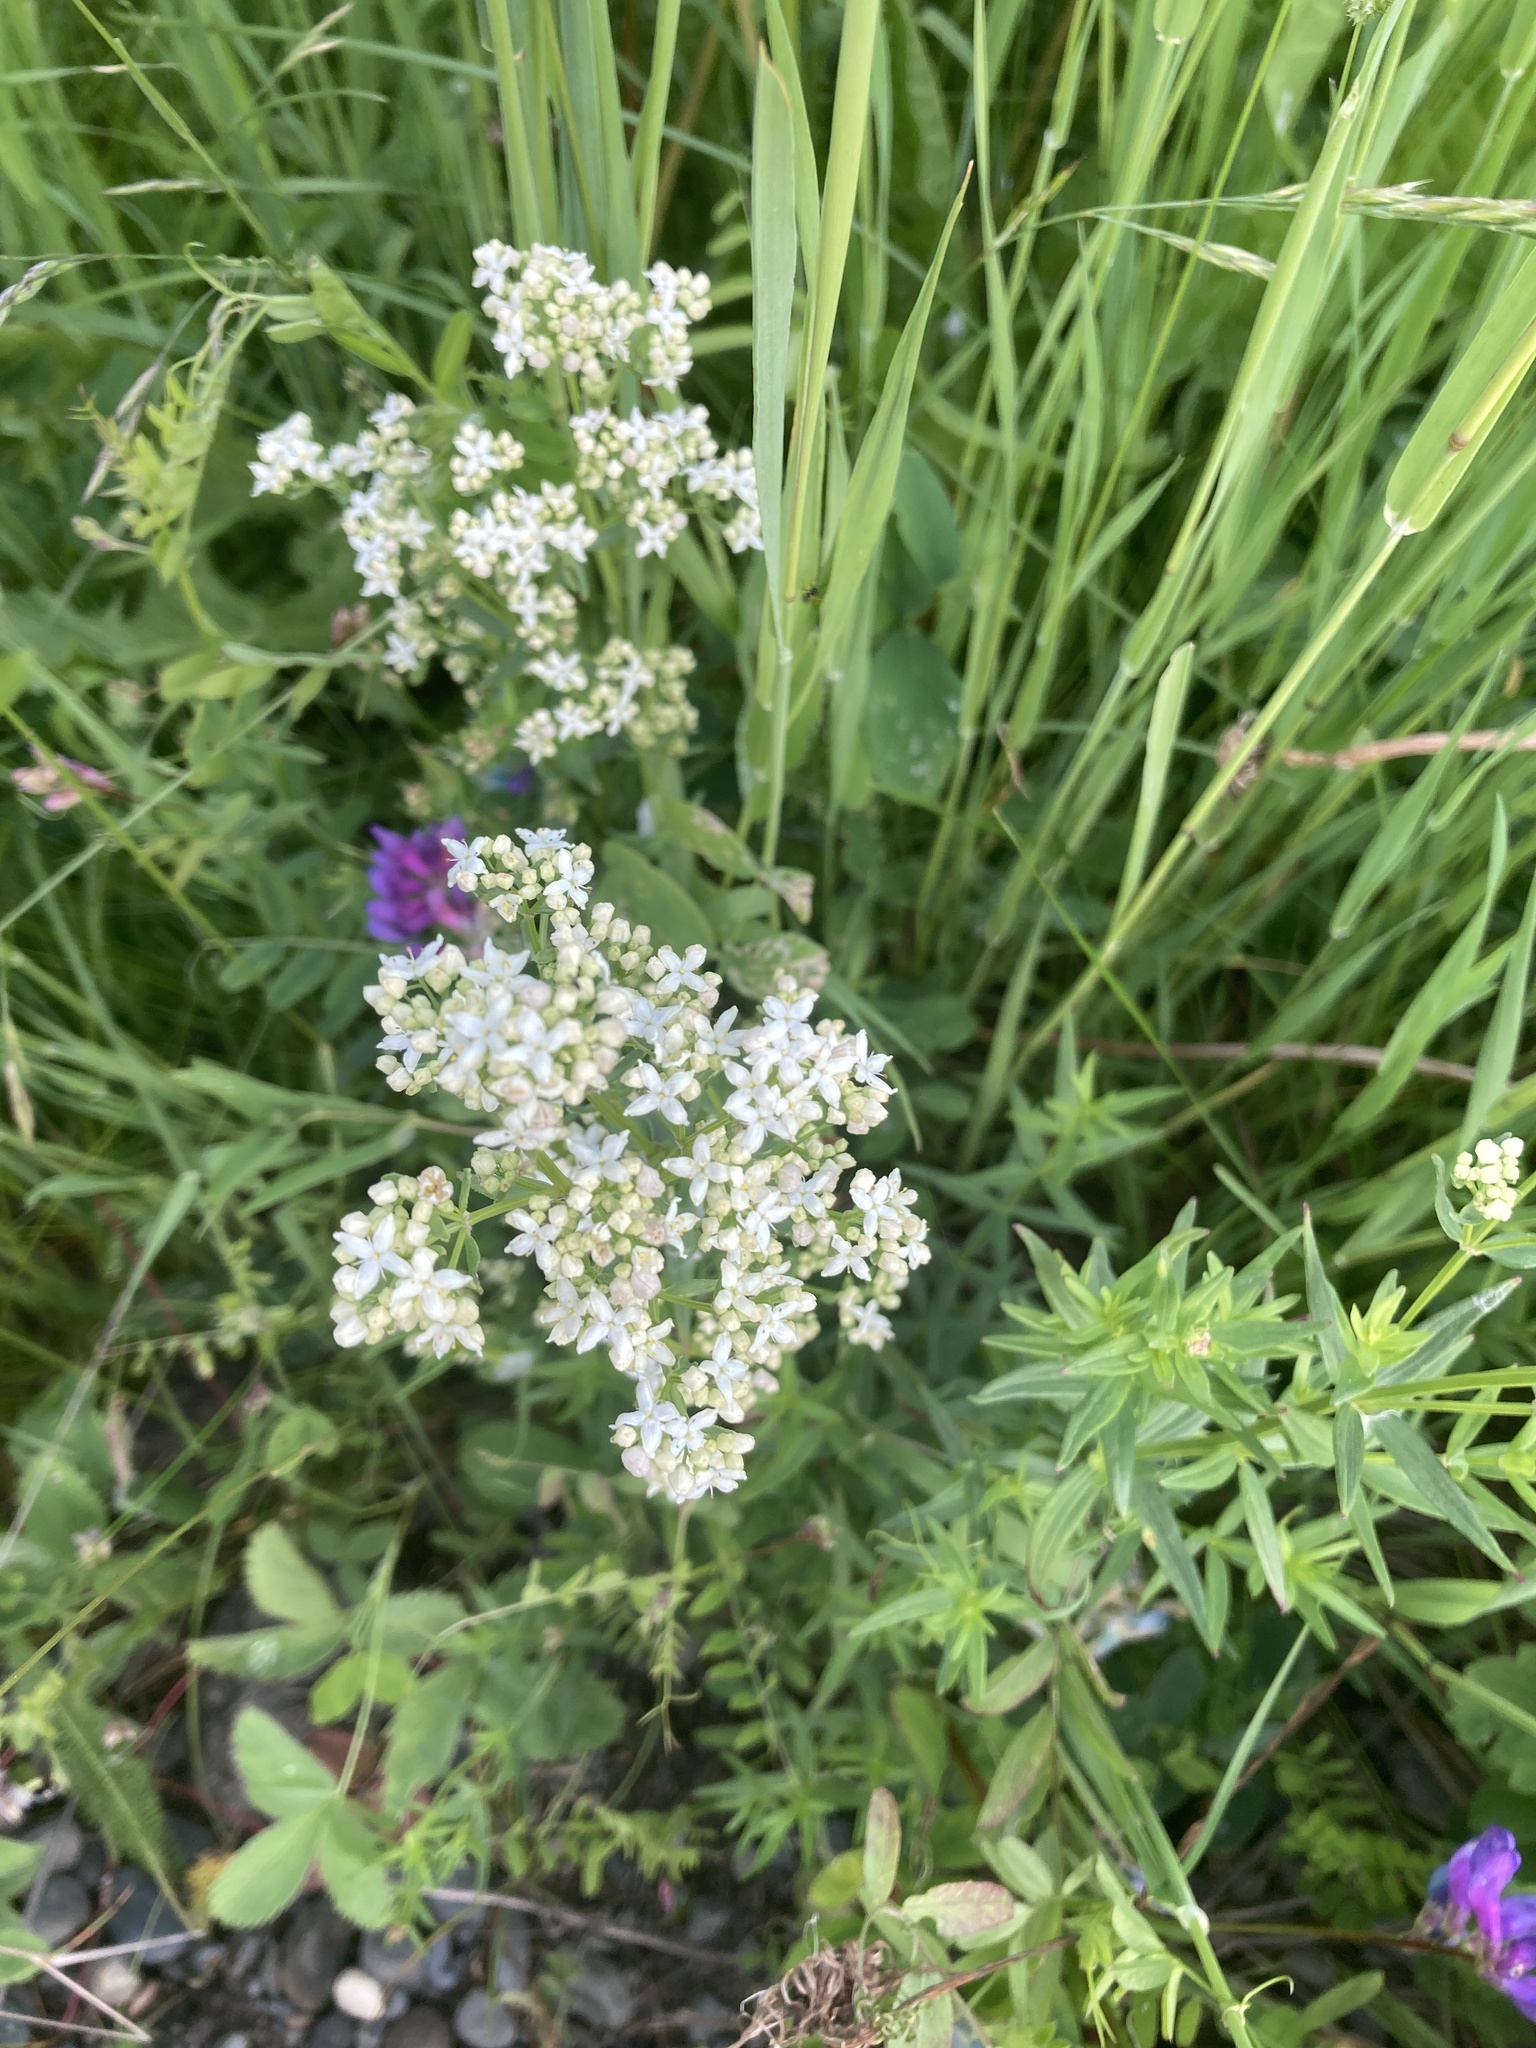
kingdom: Plantae
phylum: Tracheophyta
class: Magnoliopsida
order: Gentianales
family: Rubiaceae
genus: Galium
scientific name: Galium boreale
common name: Northern bedstraw
